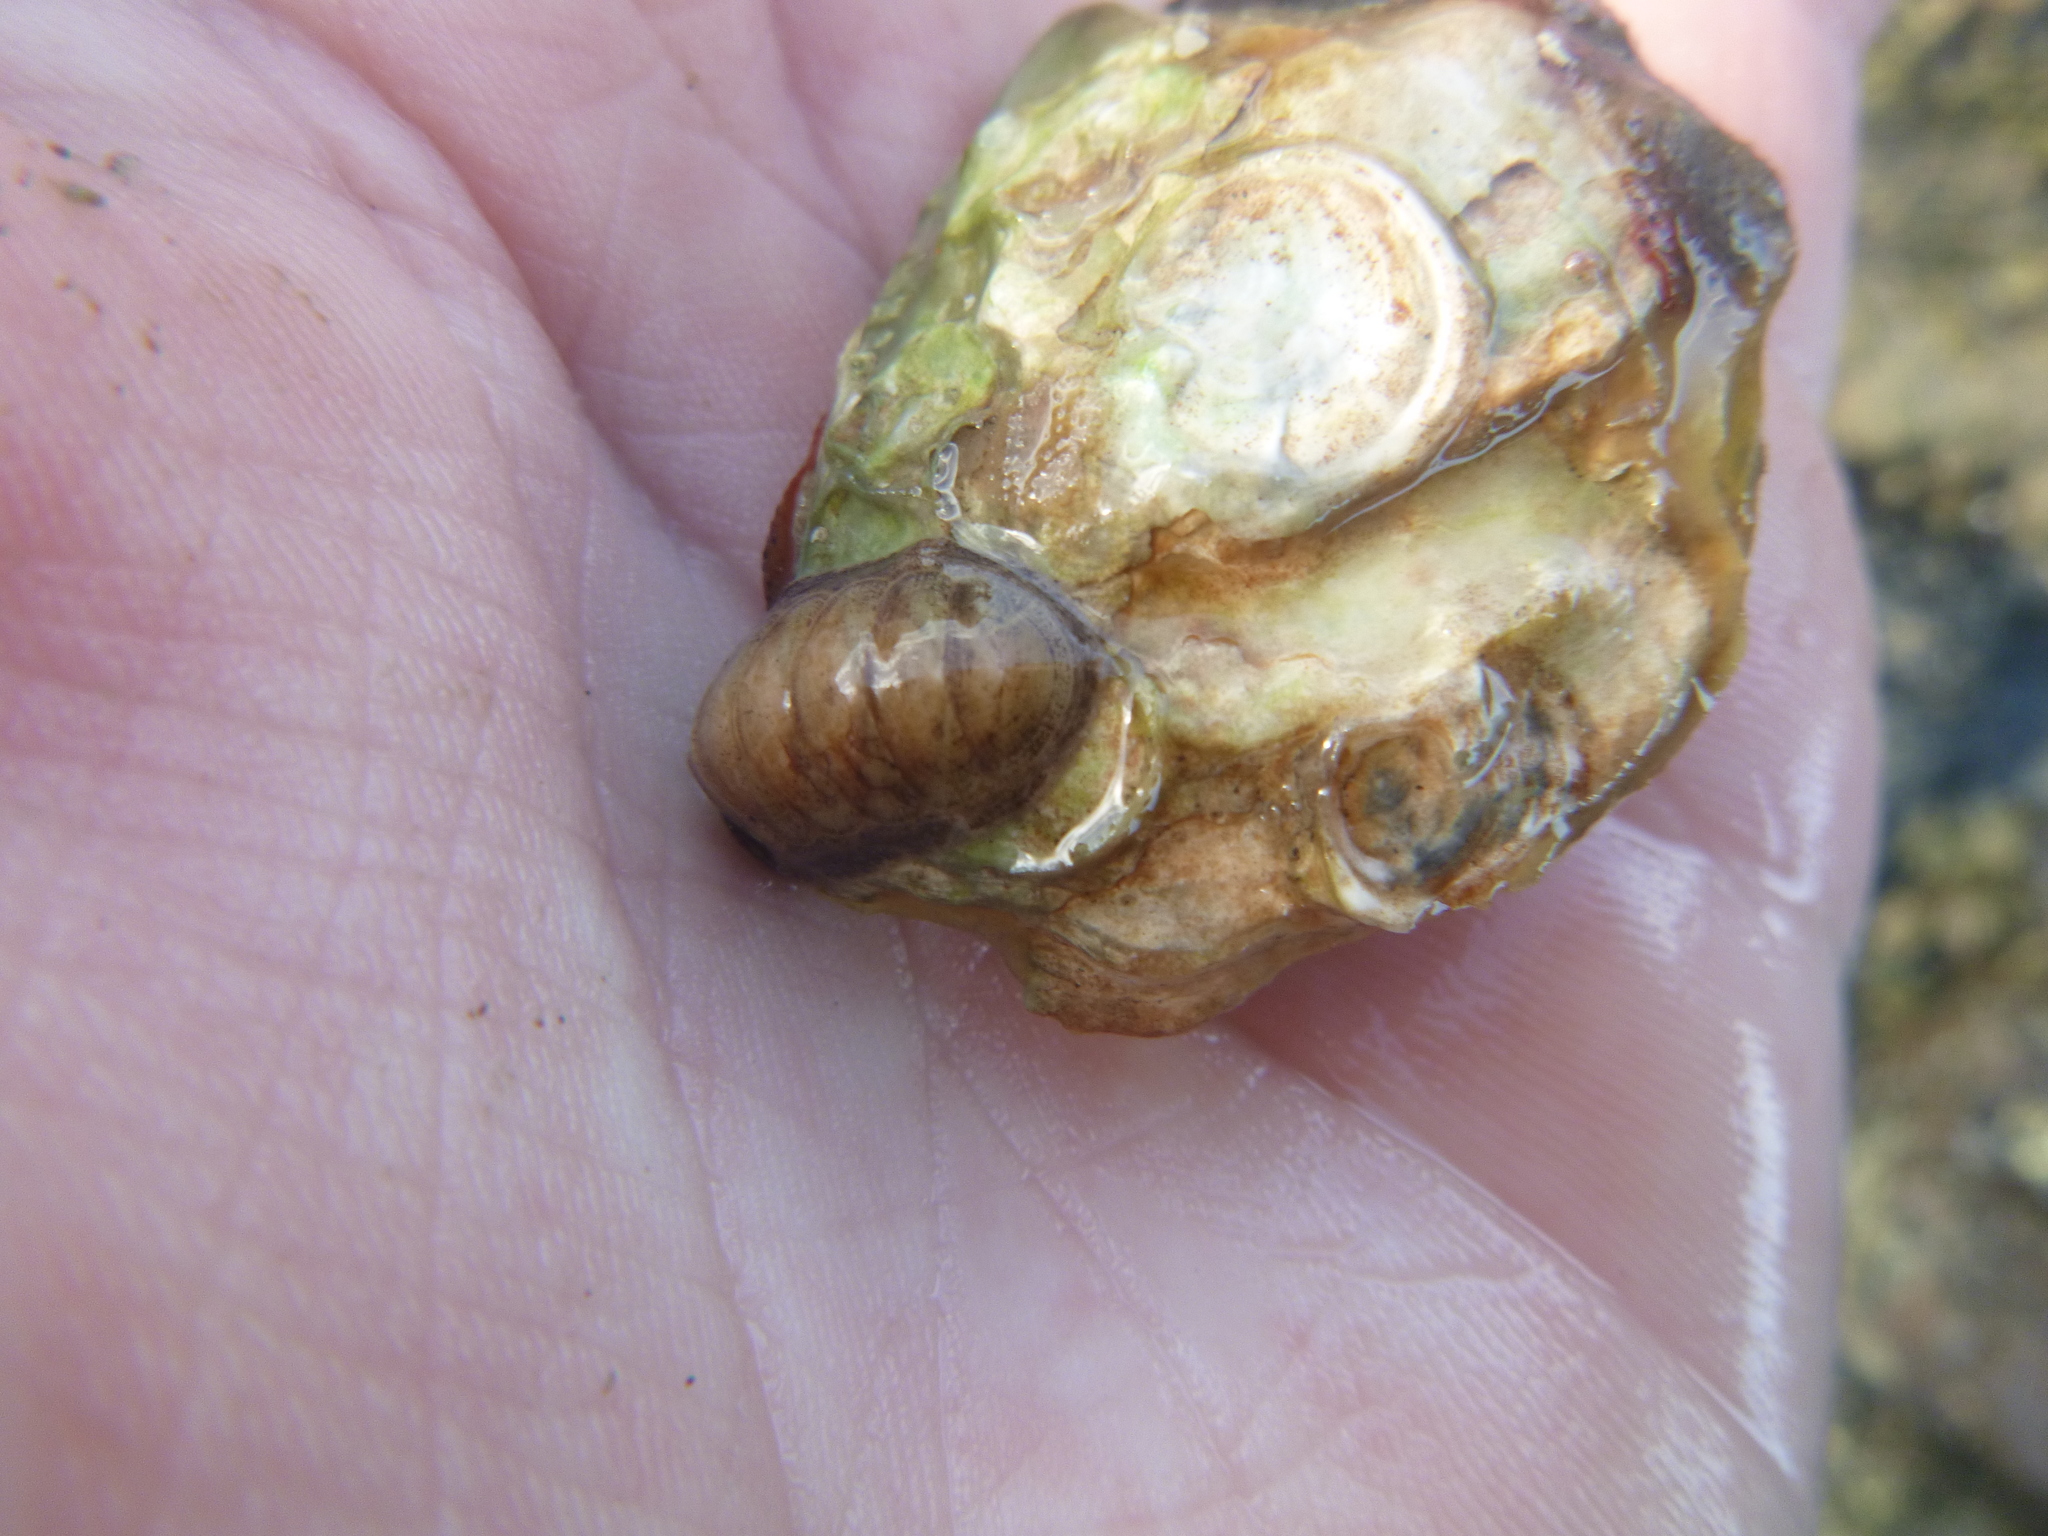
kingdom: Animalia
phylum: Mollusca
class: Polyplacophora
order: Chitonida
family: Ischnochitonidae
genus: Ischnochiton
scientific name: Ischnochiton maorianus
